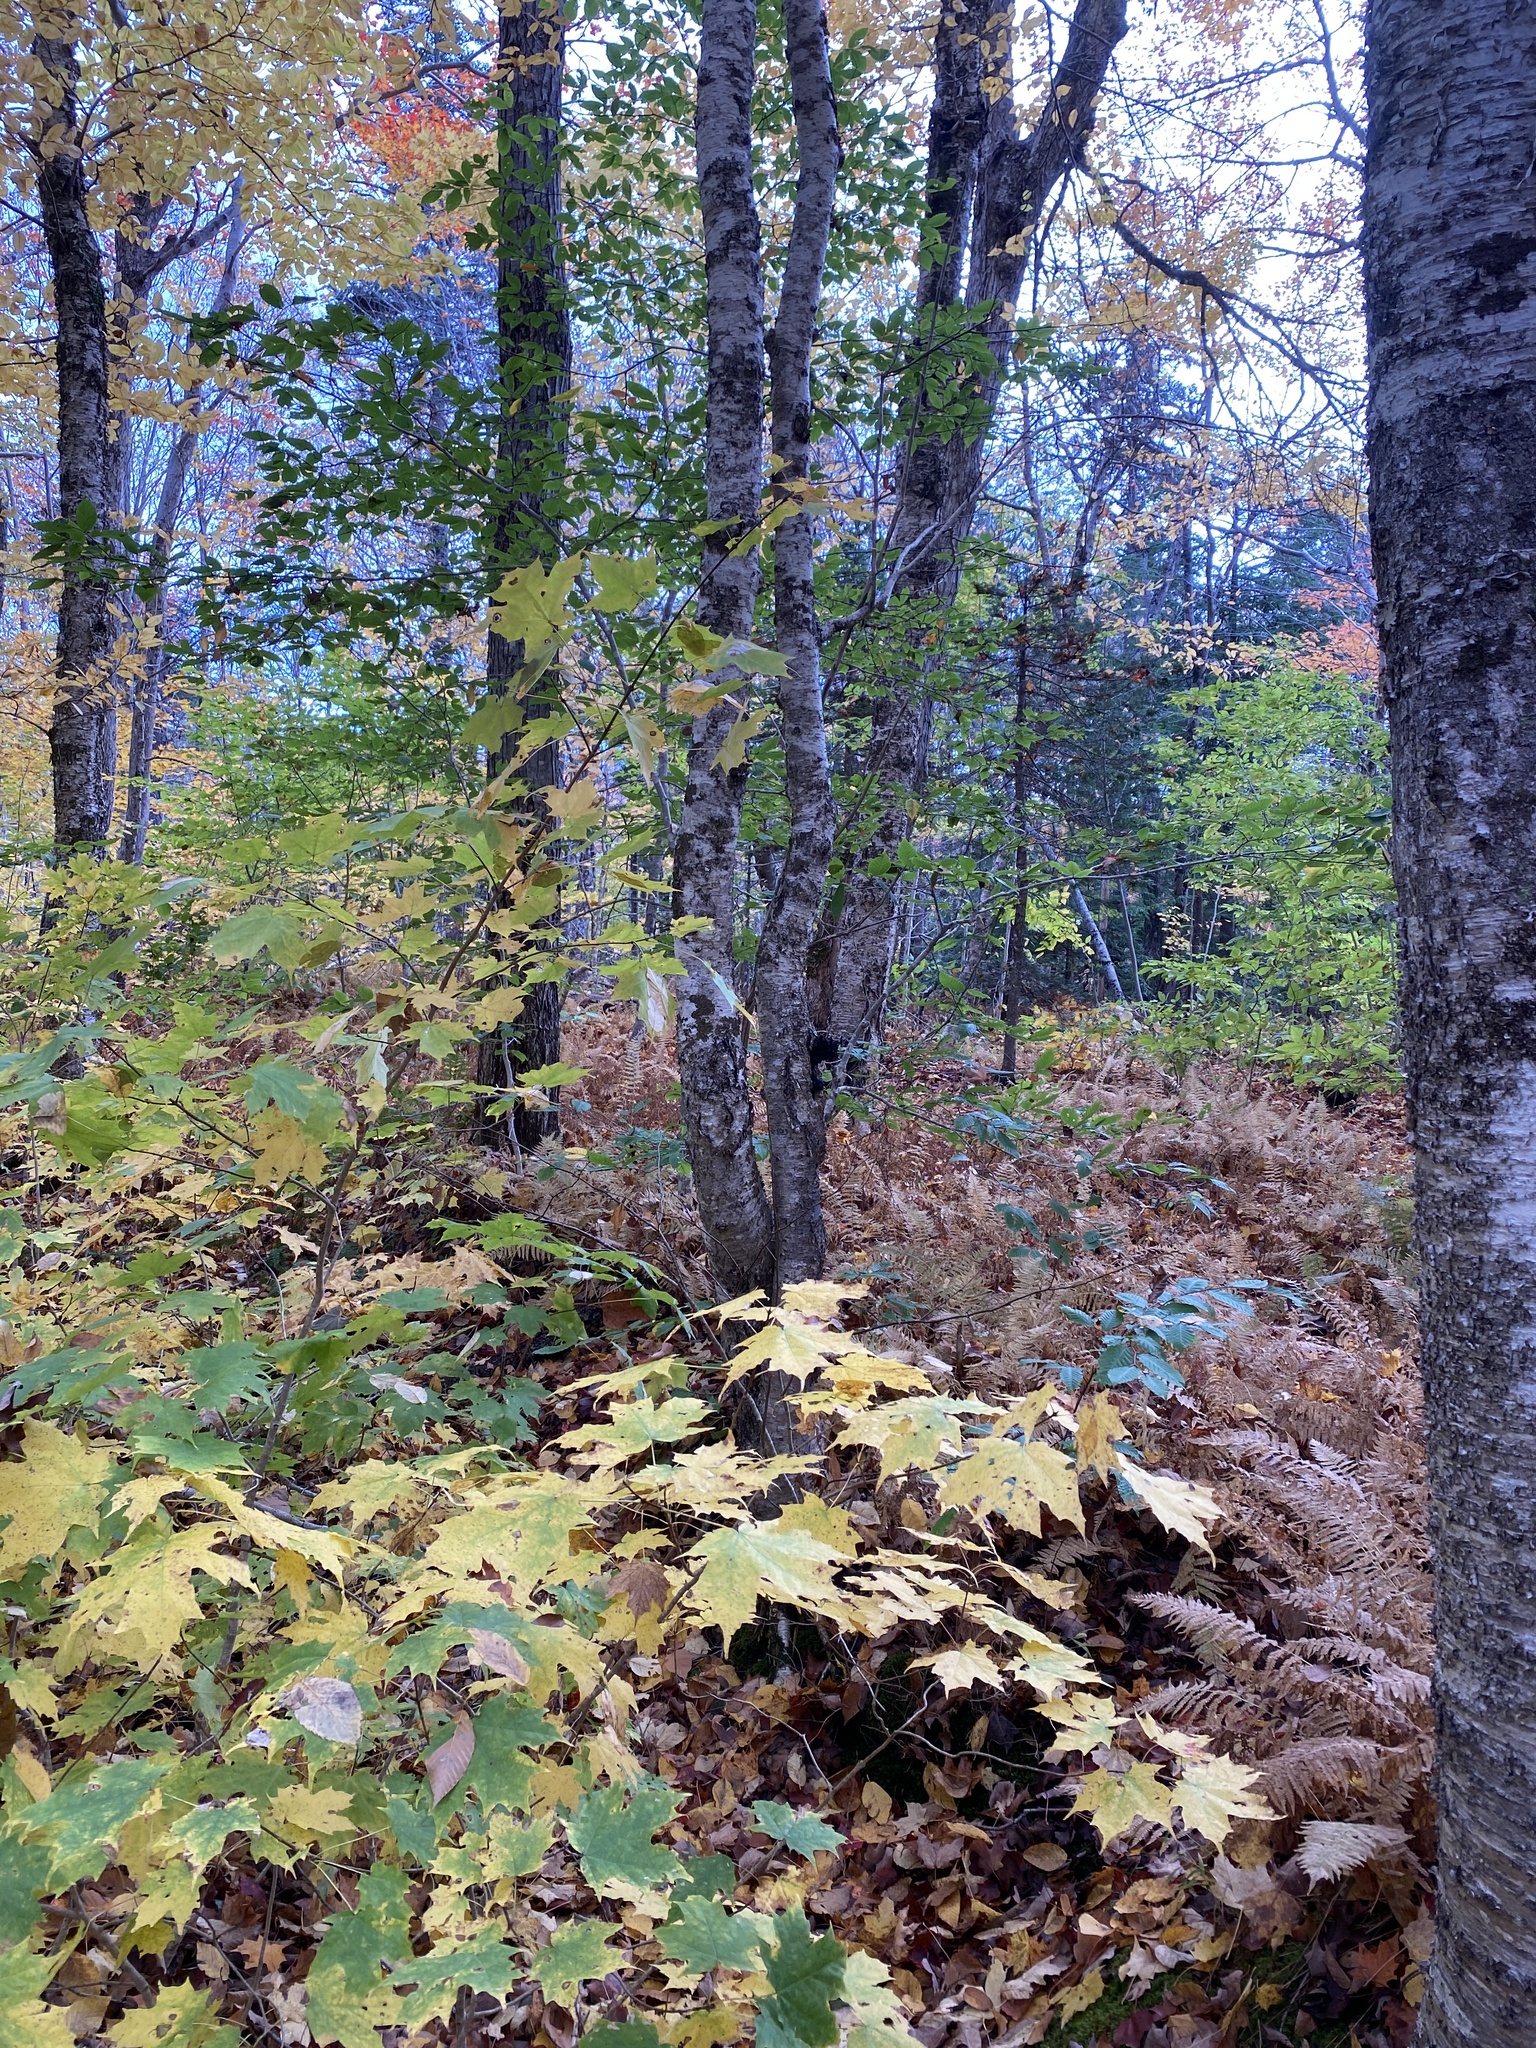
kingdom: Fungi
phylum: Basidiomycota
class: Agaricomycetes
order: Hymenochaetales
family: Hymenochaetaceae
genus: Inonotus
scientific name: Inonotus obliquus
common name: Chaga
